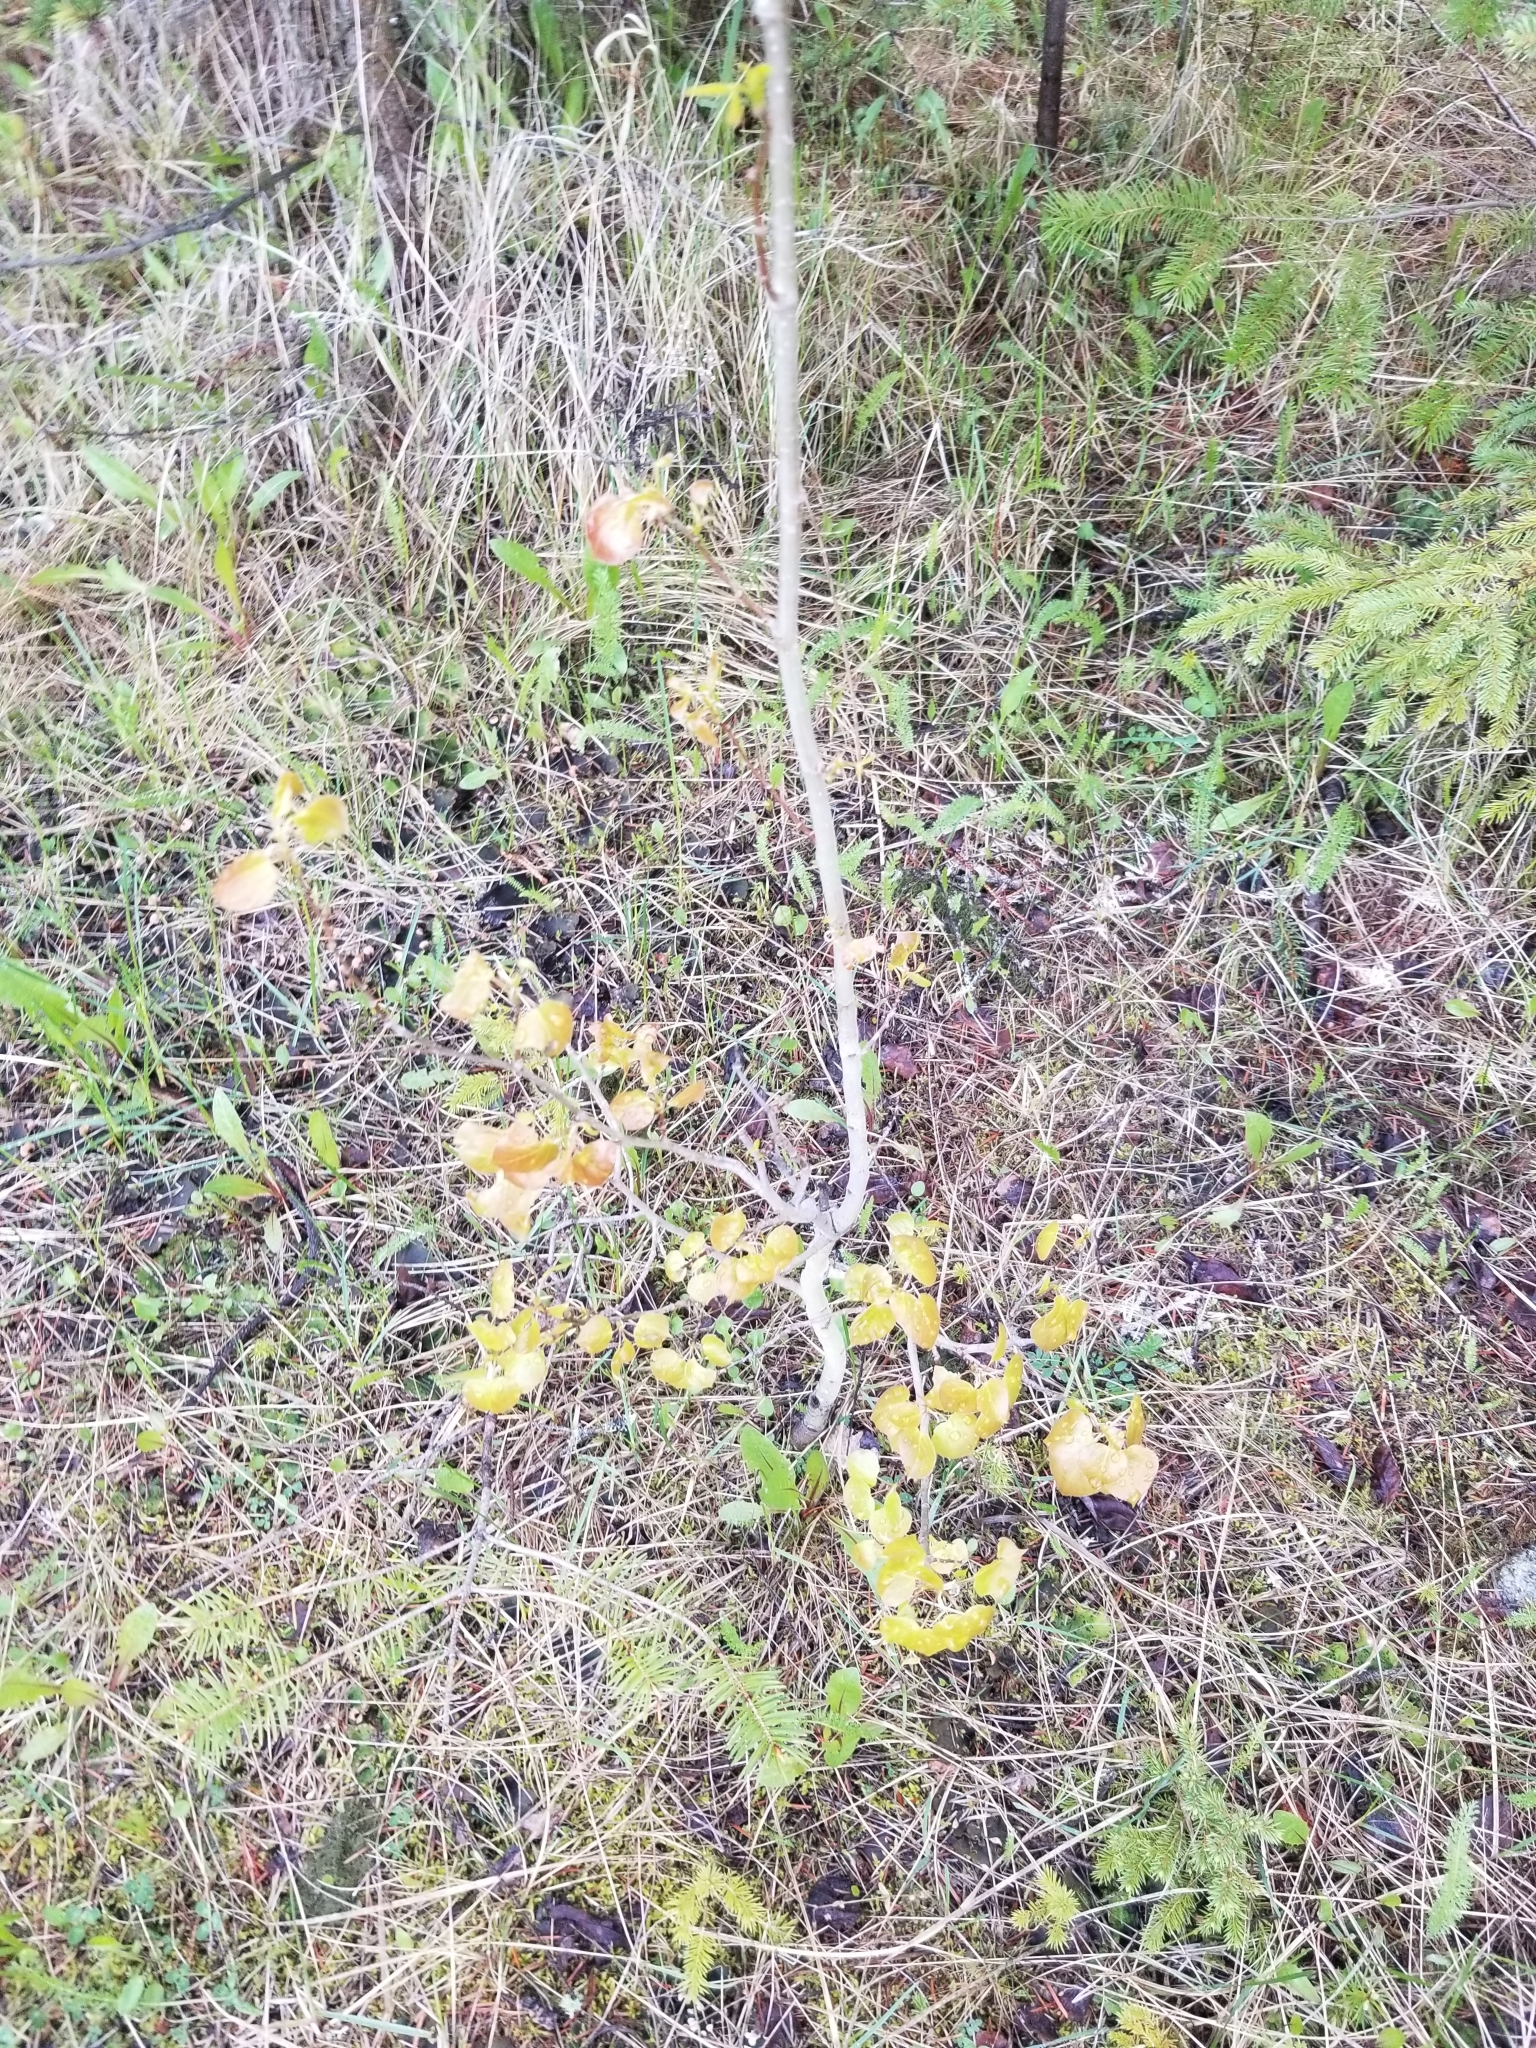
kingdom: Plantae
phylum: Tracheophyta
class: Magnoliopsida
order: Malpighiales
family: Salicaceae
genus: Populus
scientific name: Populus tremuloides
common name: Quaking aspen
